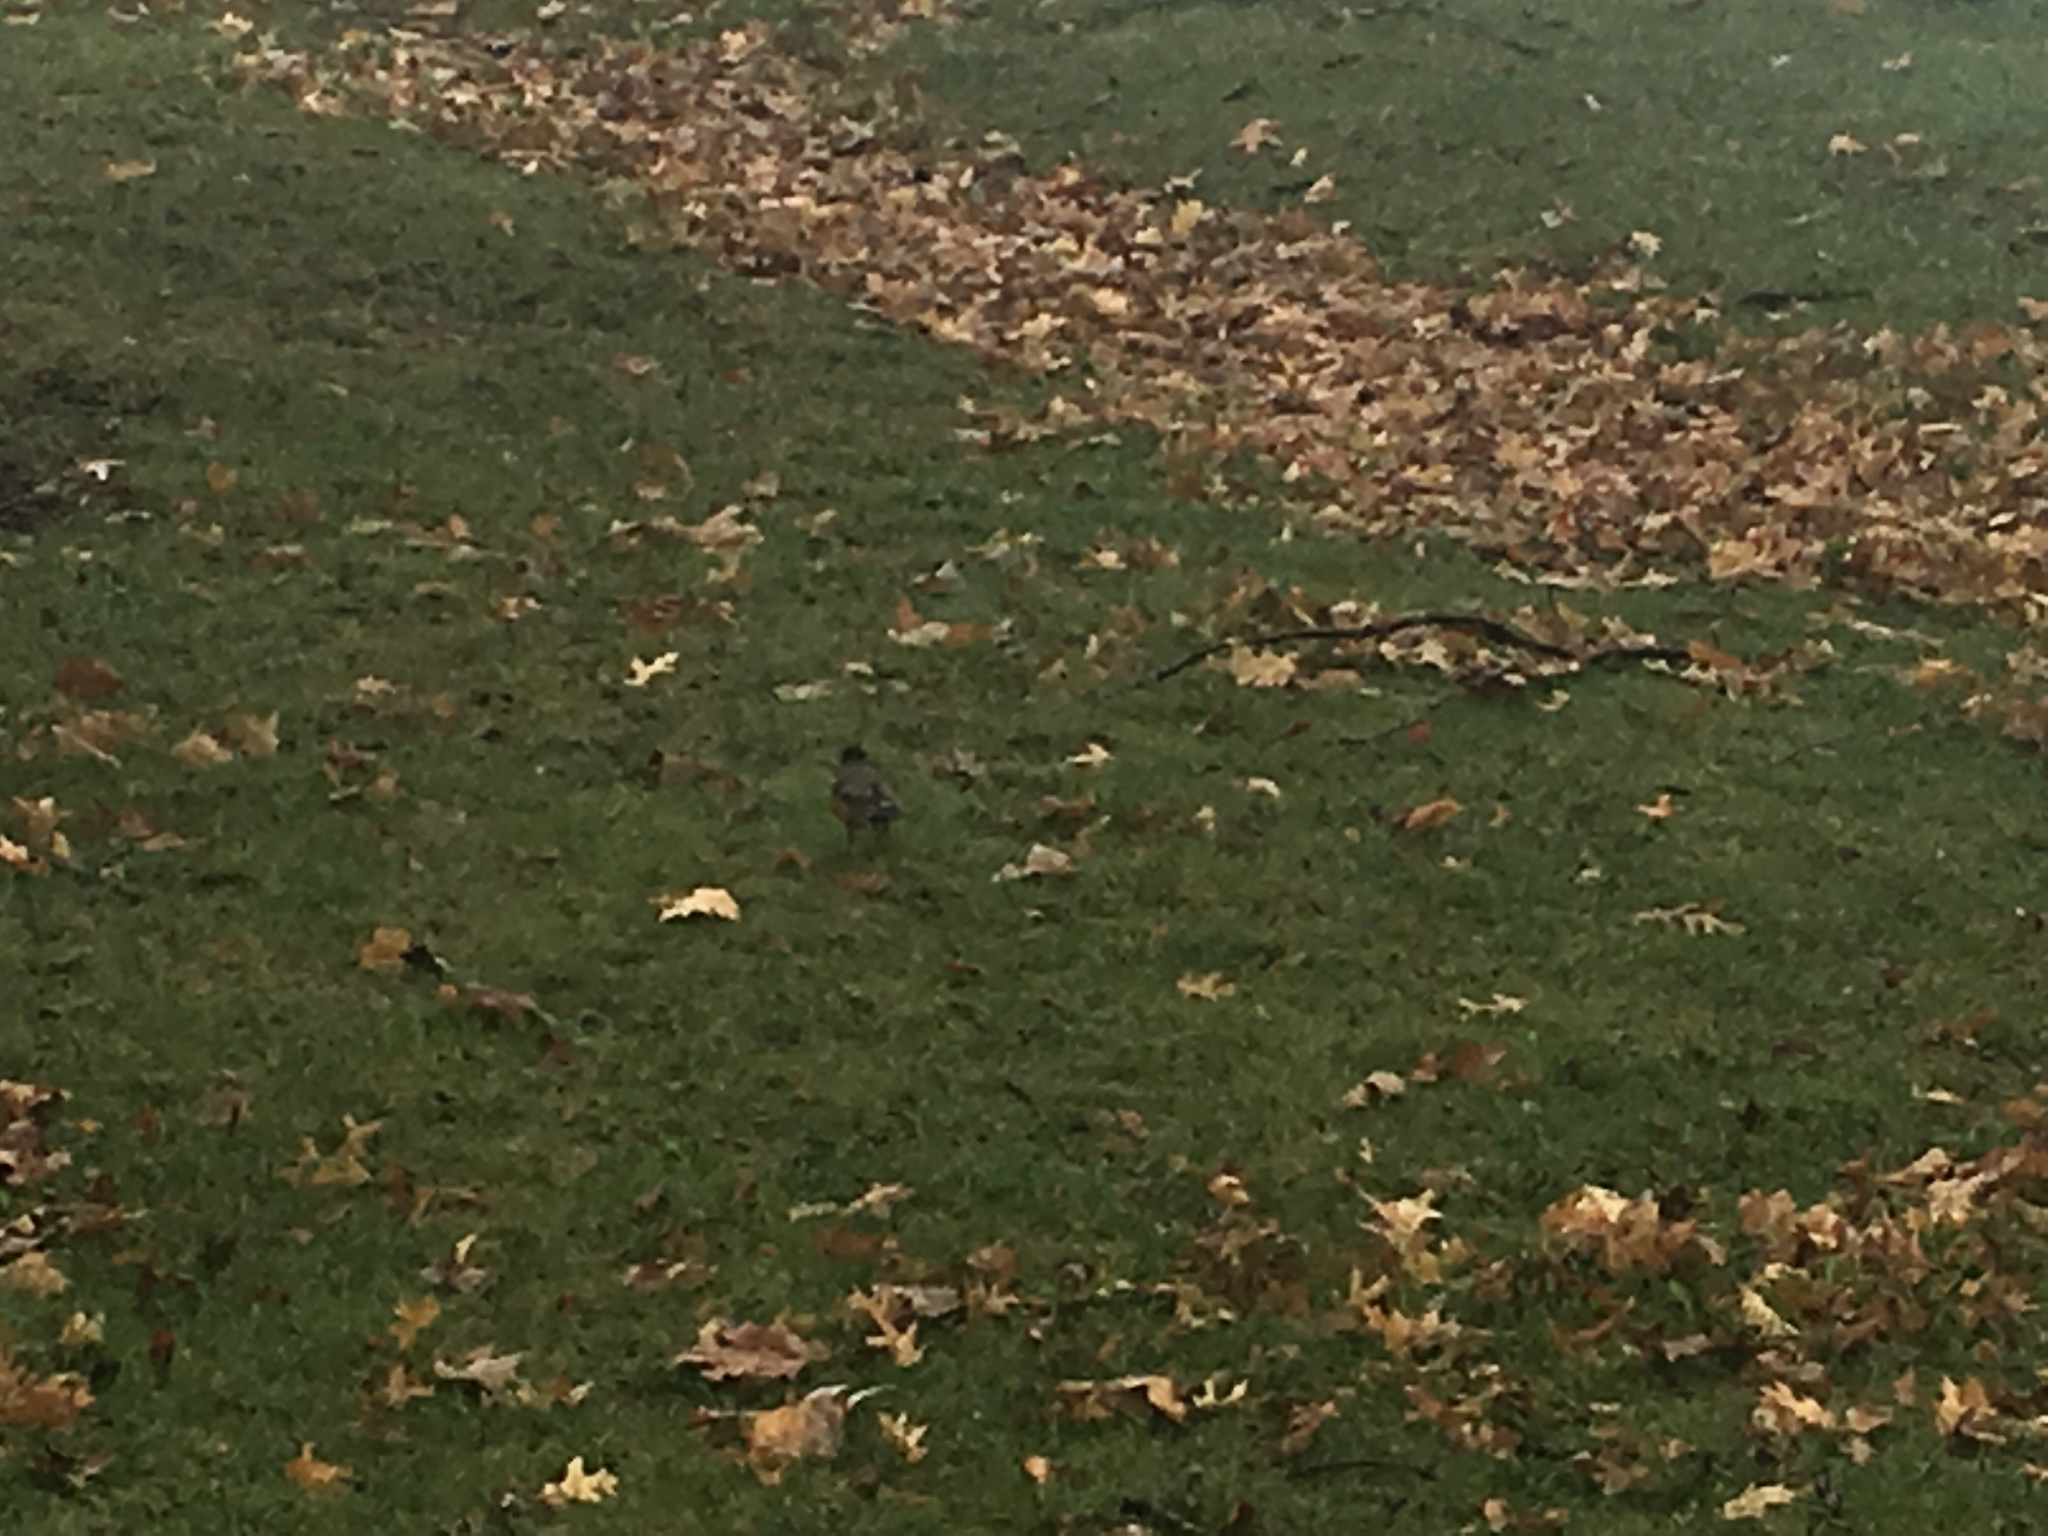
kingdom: Animalia
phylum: Chordata
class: Aves
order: Passeriformes
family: Turdidae
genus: Turdus
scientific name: Turdus migratorius
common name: American robin
